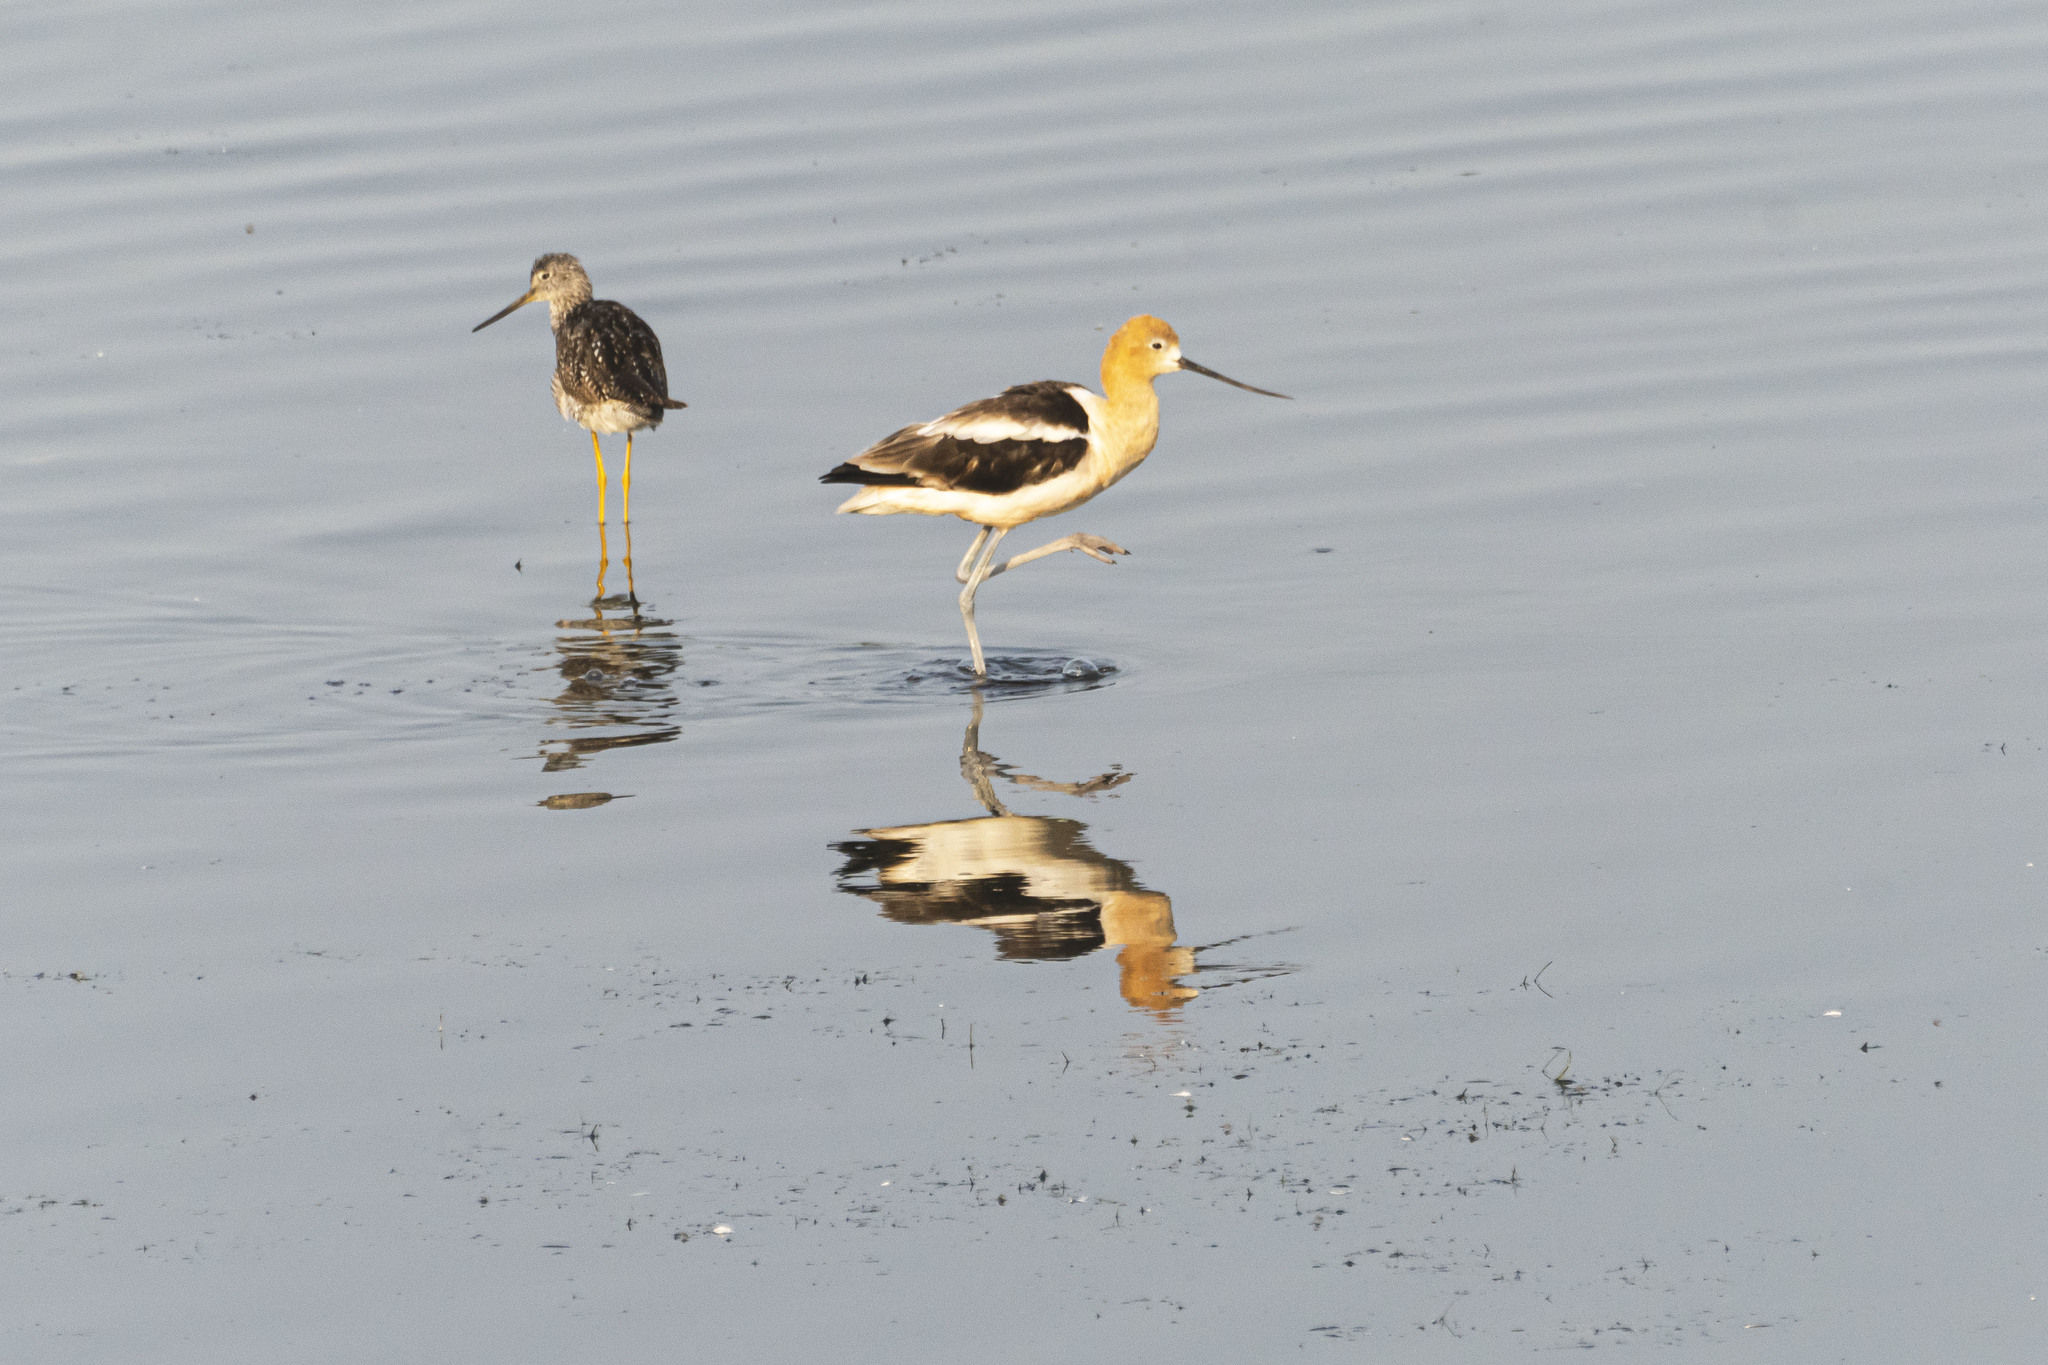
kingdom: Animalia
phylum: Chordata
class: Aves
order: Charadriiformes
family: Recurvirostridae
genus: Recurvirostra
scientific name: Recurvirostra americana
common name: American avocet
